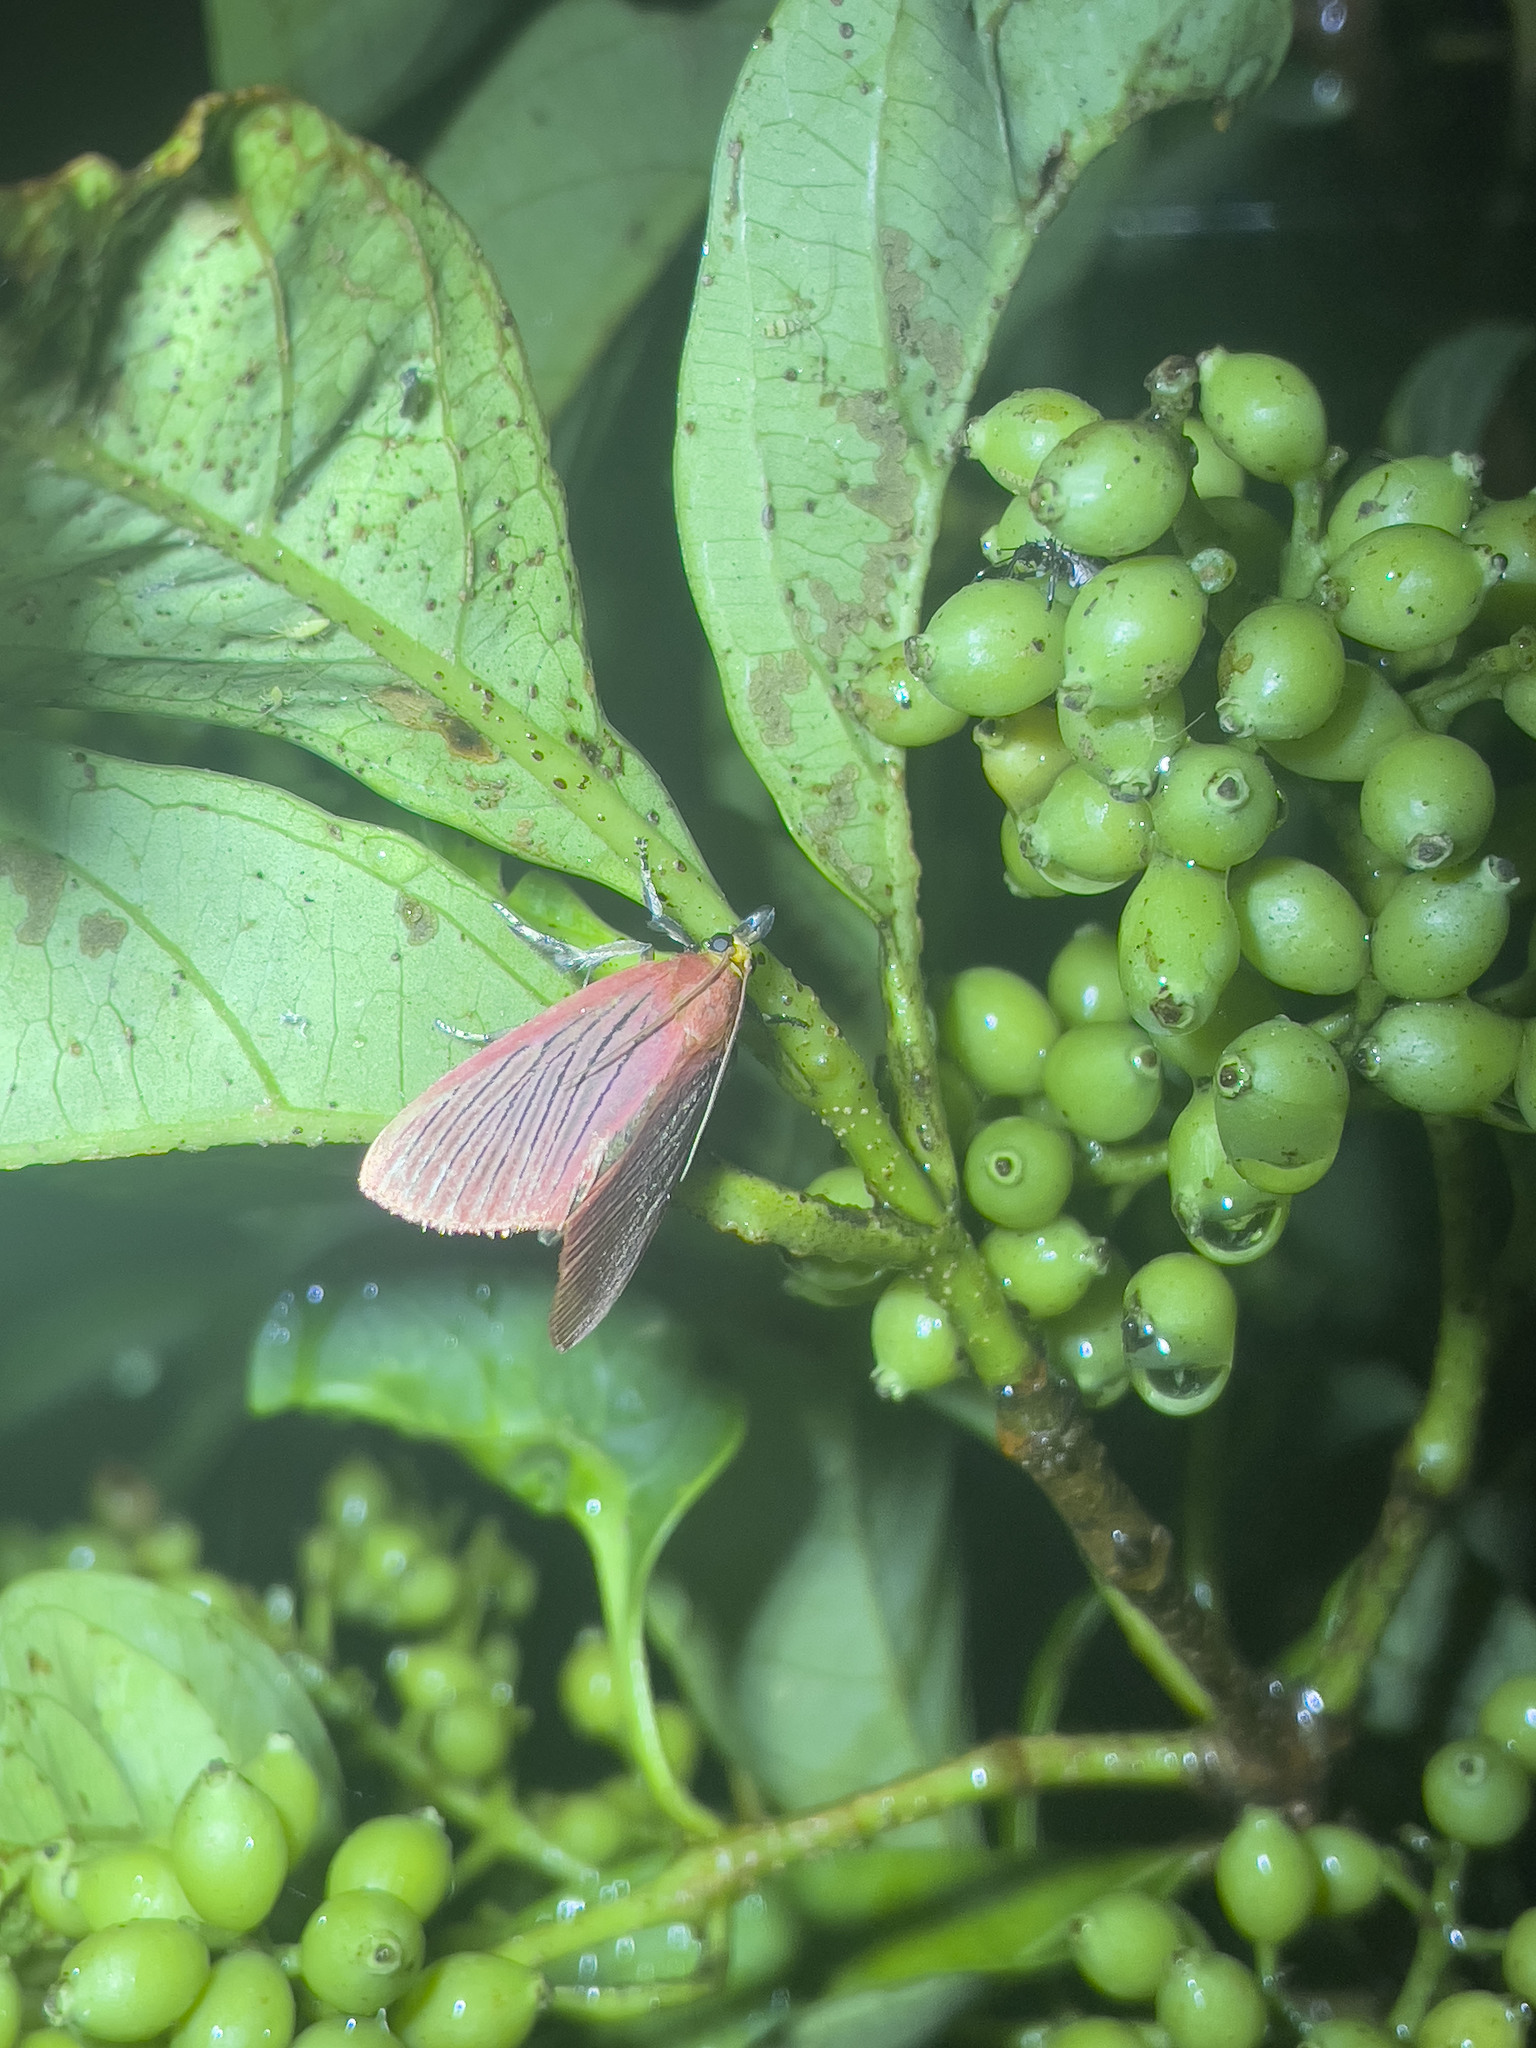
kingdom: Animalia
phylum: Arthropoda
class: Insecta
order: Lepidoptera
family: Pyralidae
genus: Arctioblepsis
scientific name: Arctioblepsis rubida
